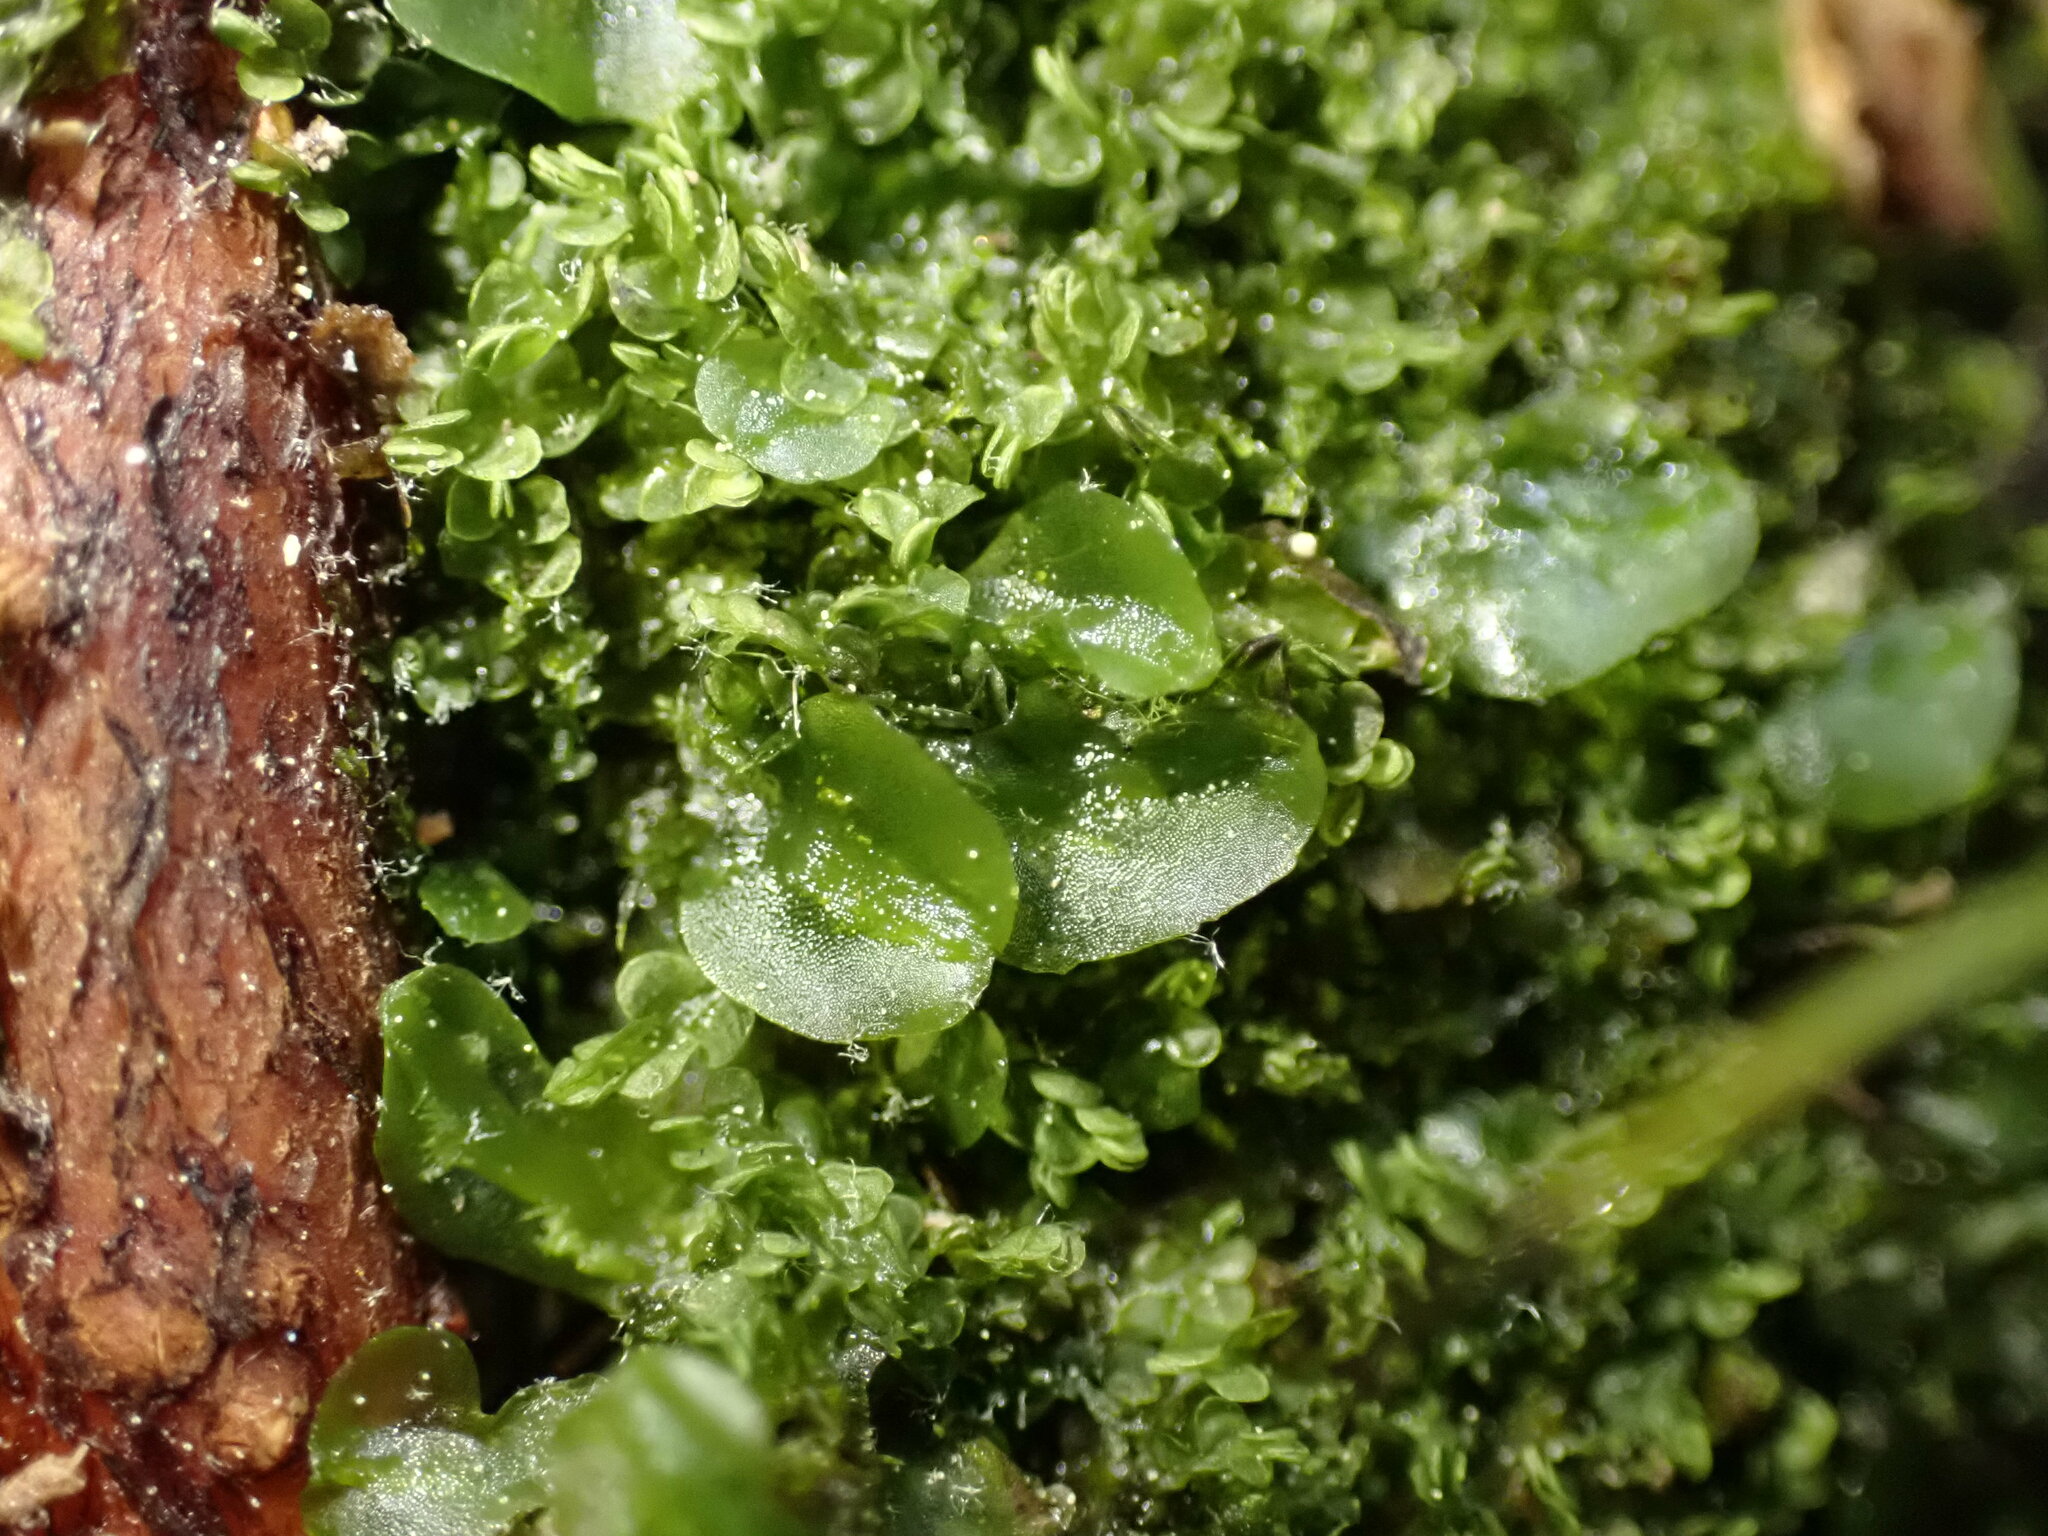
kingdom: Plantae
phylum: Marchantiophyta
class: Jungermanniopsida
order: Pallaviciniales
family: Pallaviciniaceae
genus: Pallavicinia
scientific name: Pallavicinia lyellii
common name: Veilwort
